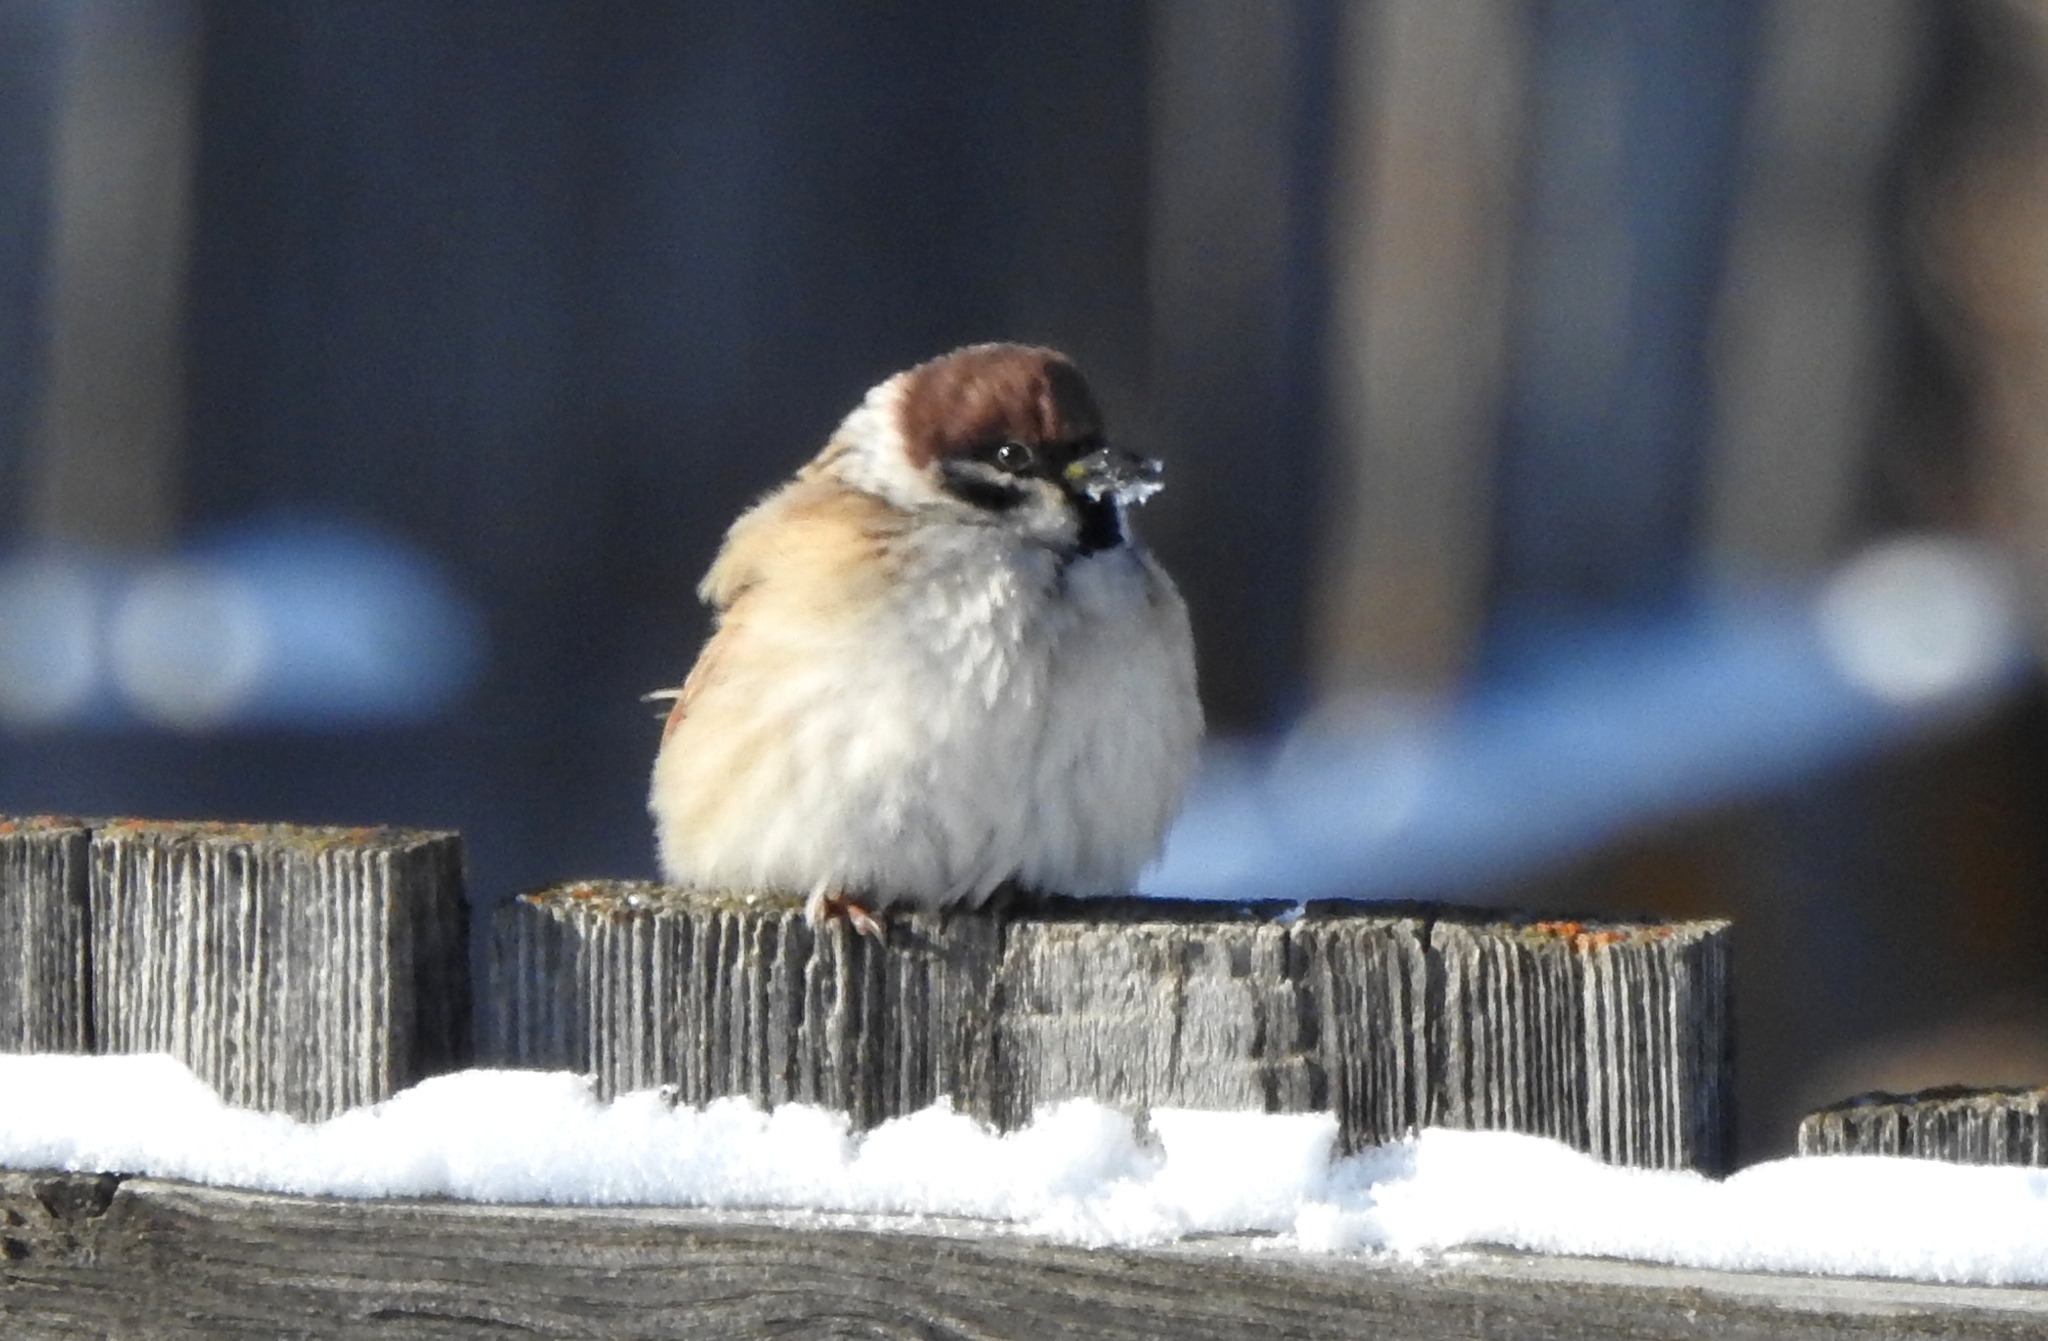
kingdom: Animalia
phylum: Chordata
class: Aves
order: Passeriformes
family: Passeridae
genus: Passer
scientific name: Passer montanus
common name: Eurasian tree sparrow
